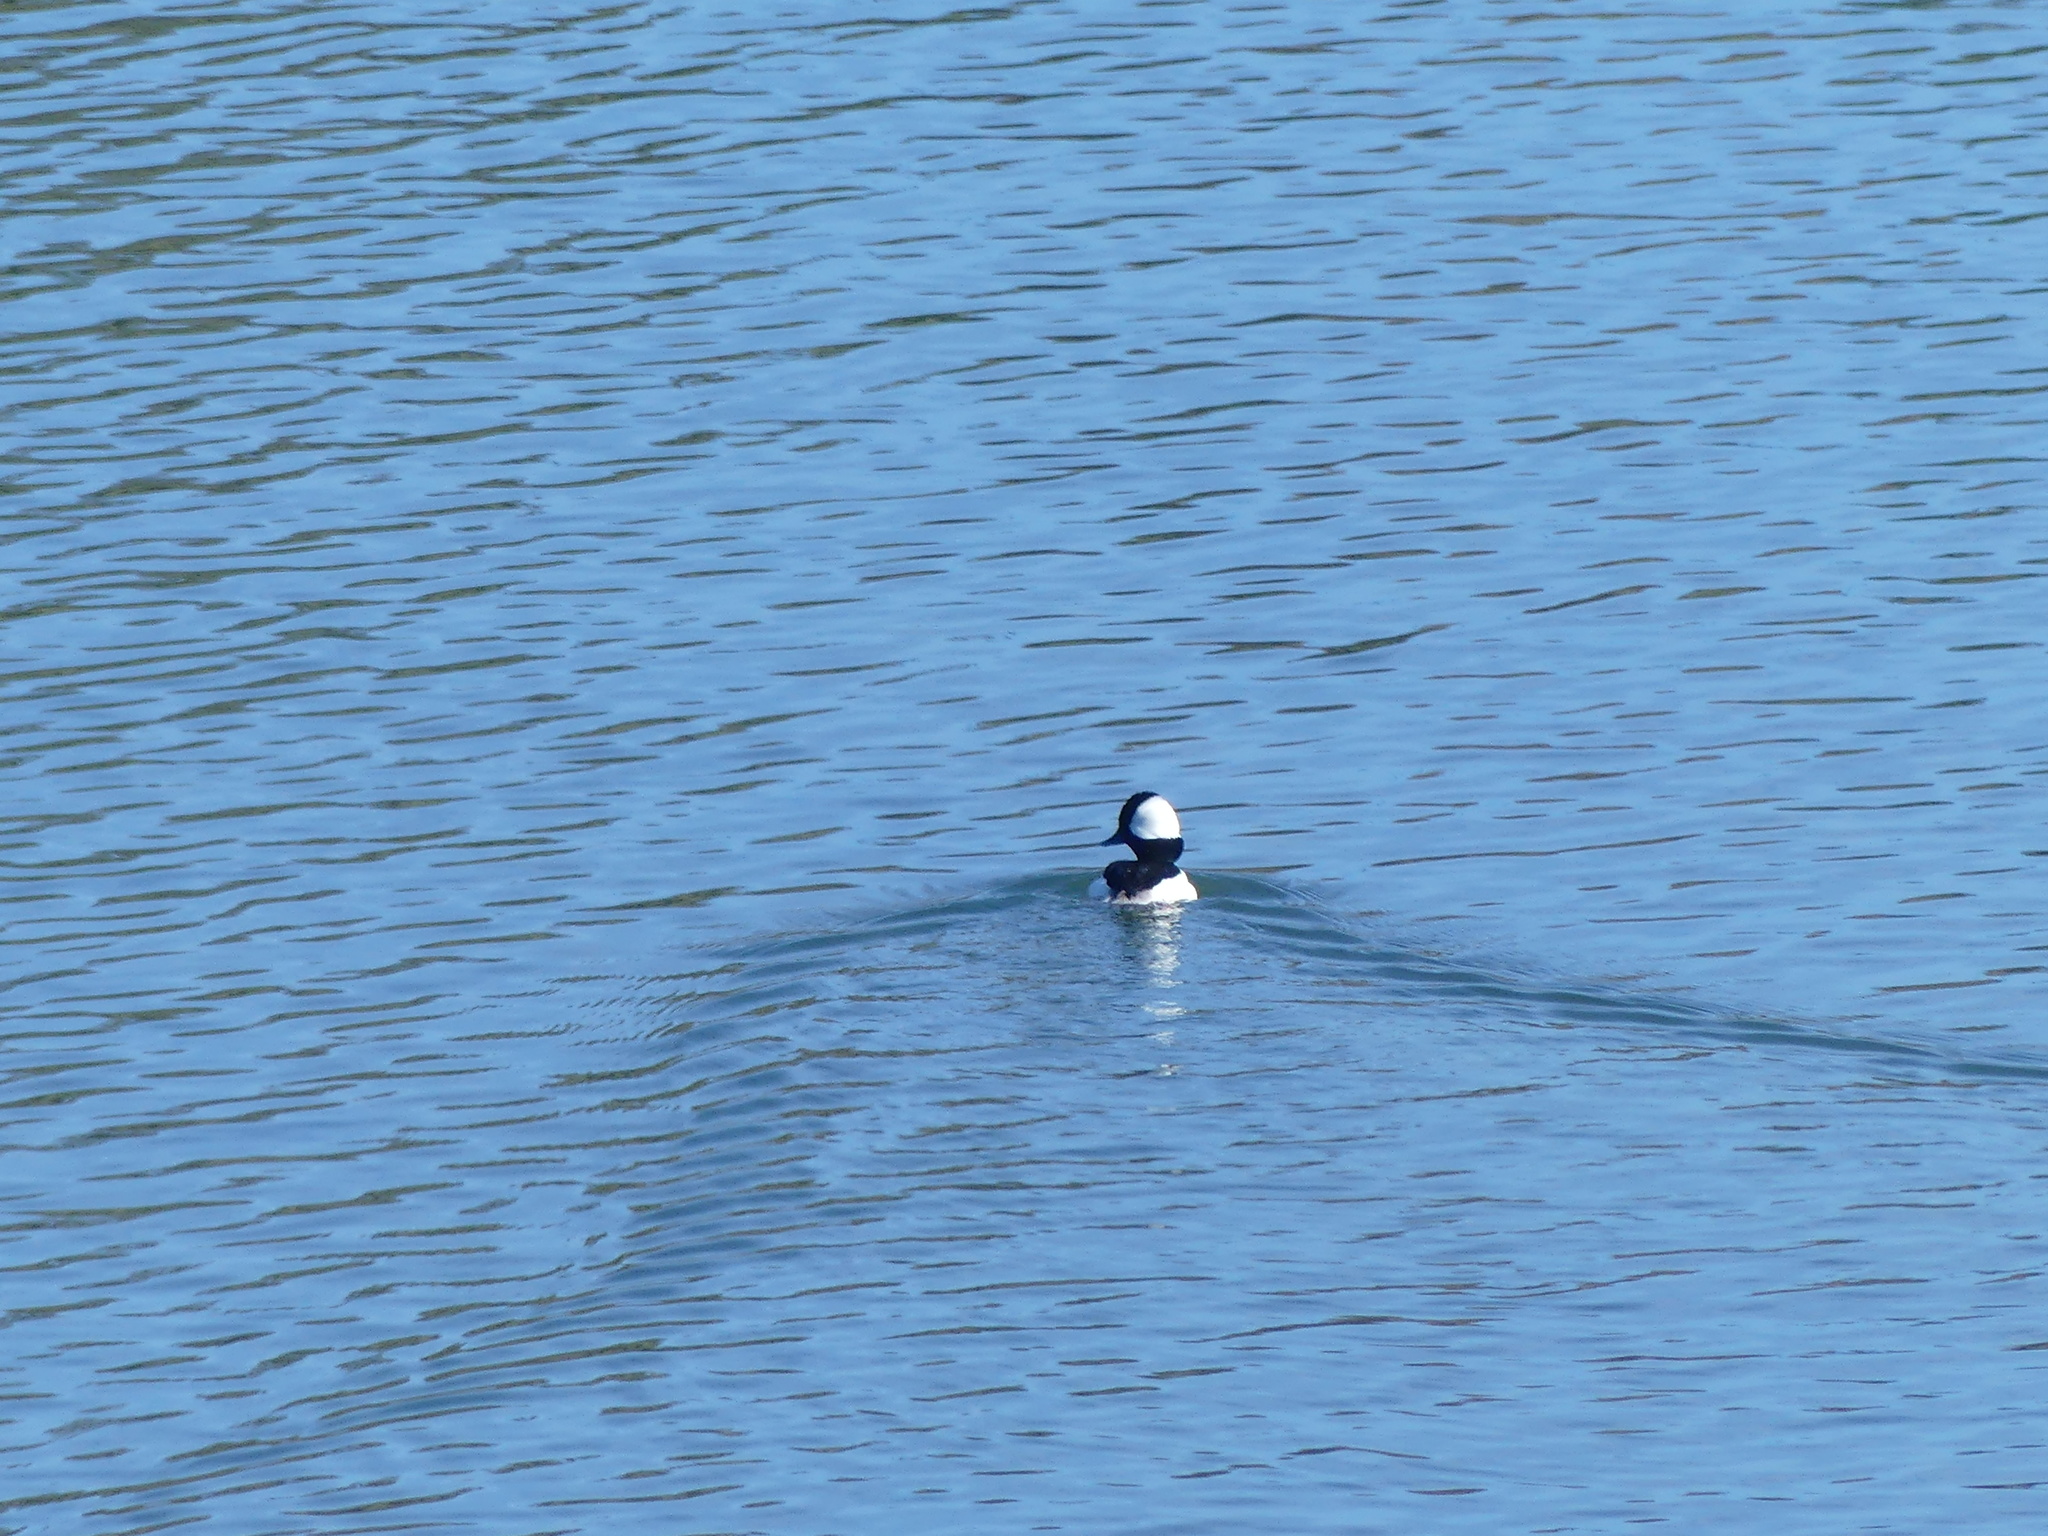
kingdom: Animalia
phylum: Chordata
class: Aves
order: Anseriformes
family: Anatidae
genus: Bucephala
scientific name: Bucephala albeola
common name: Bufflehead
